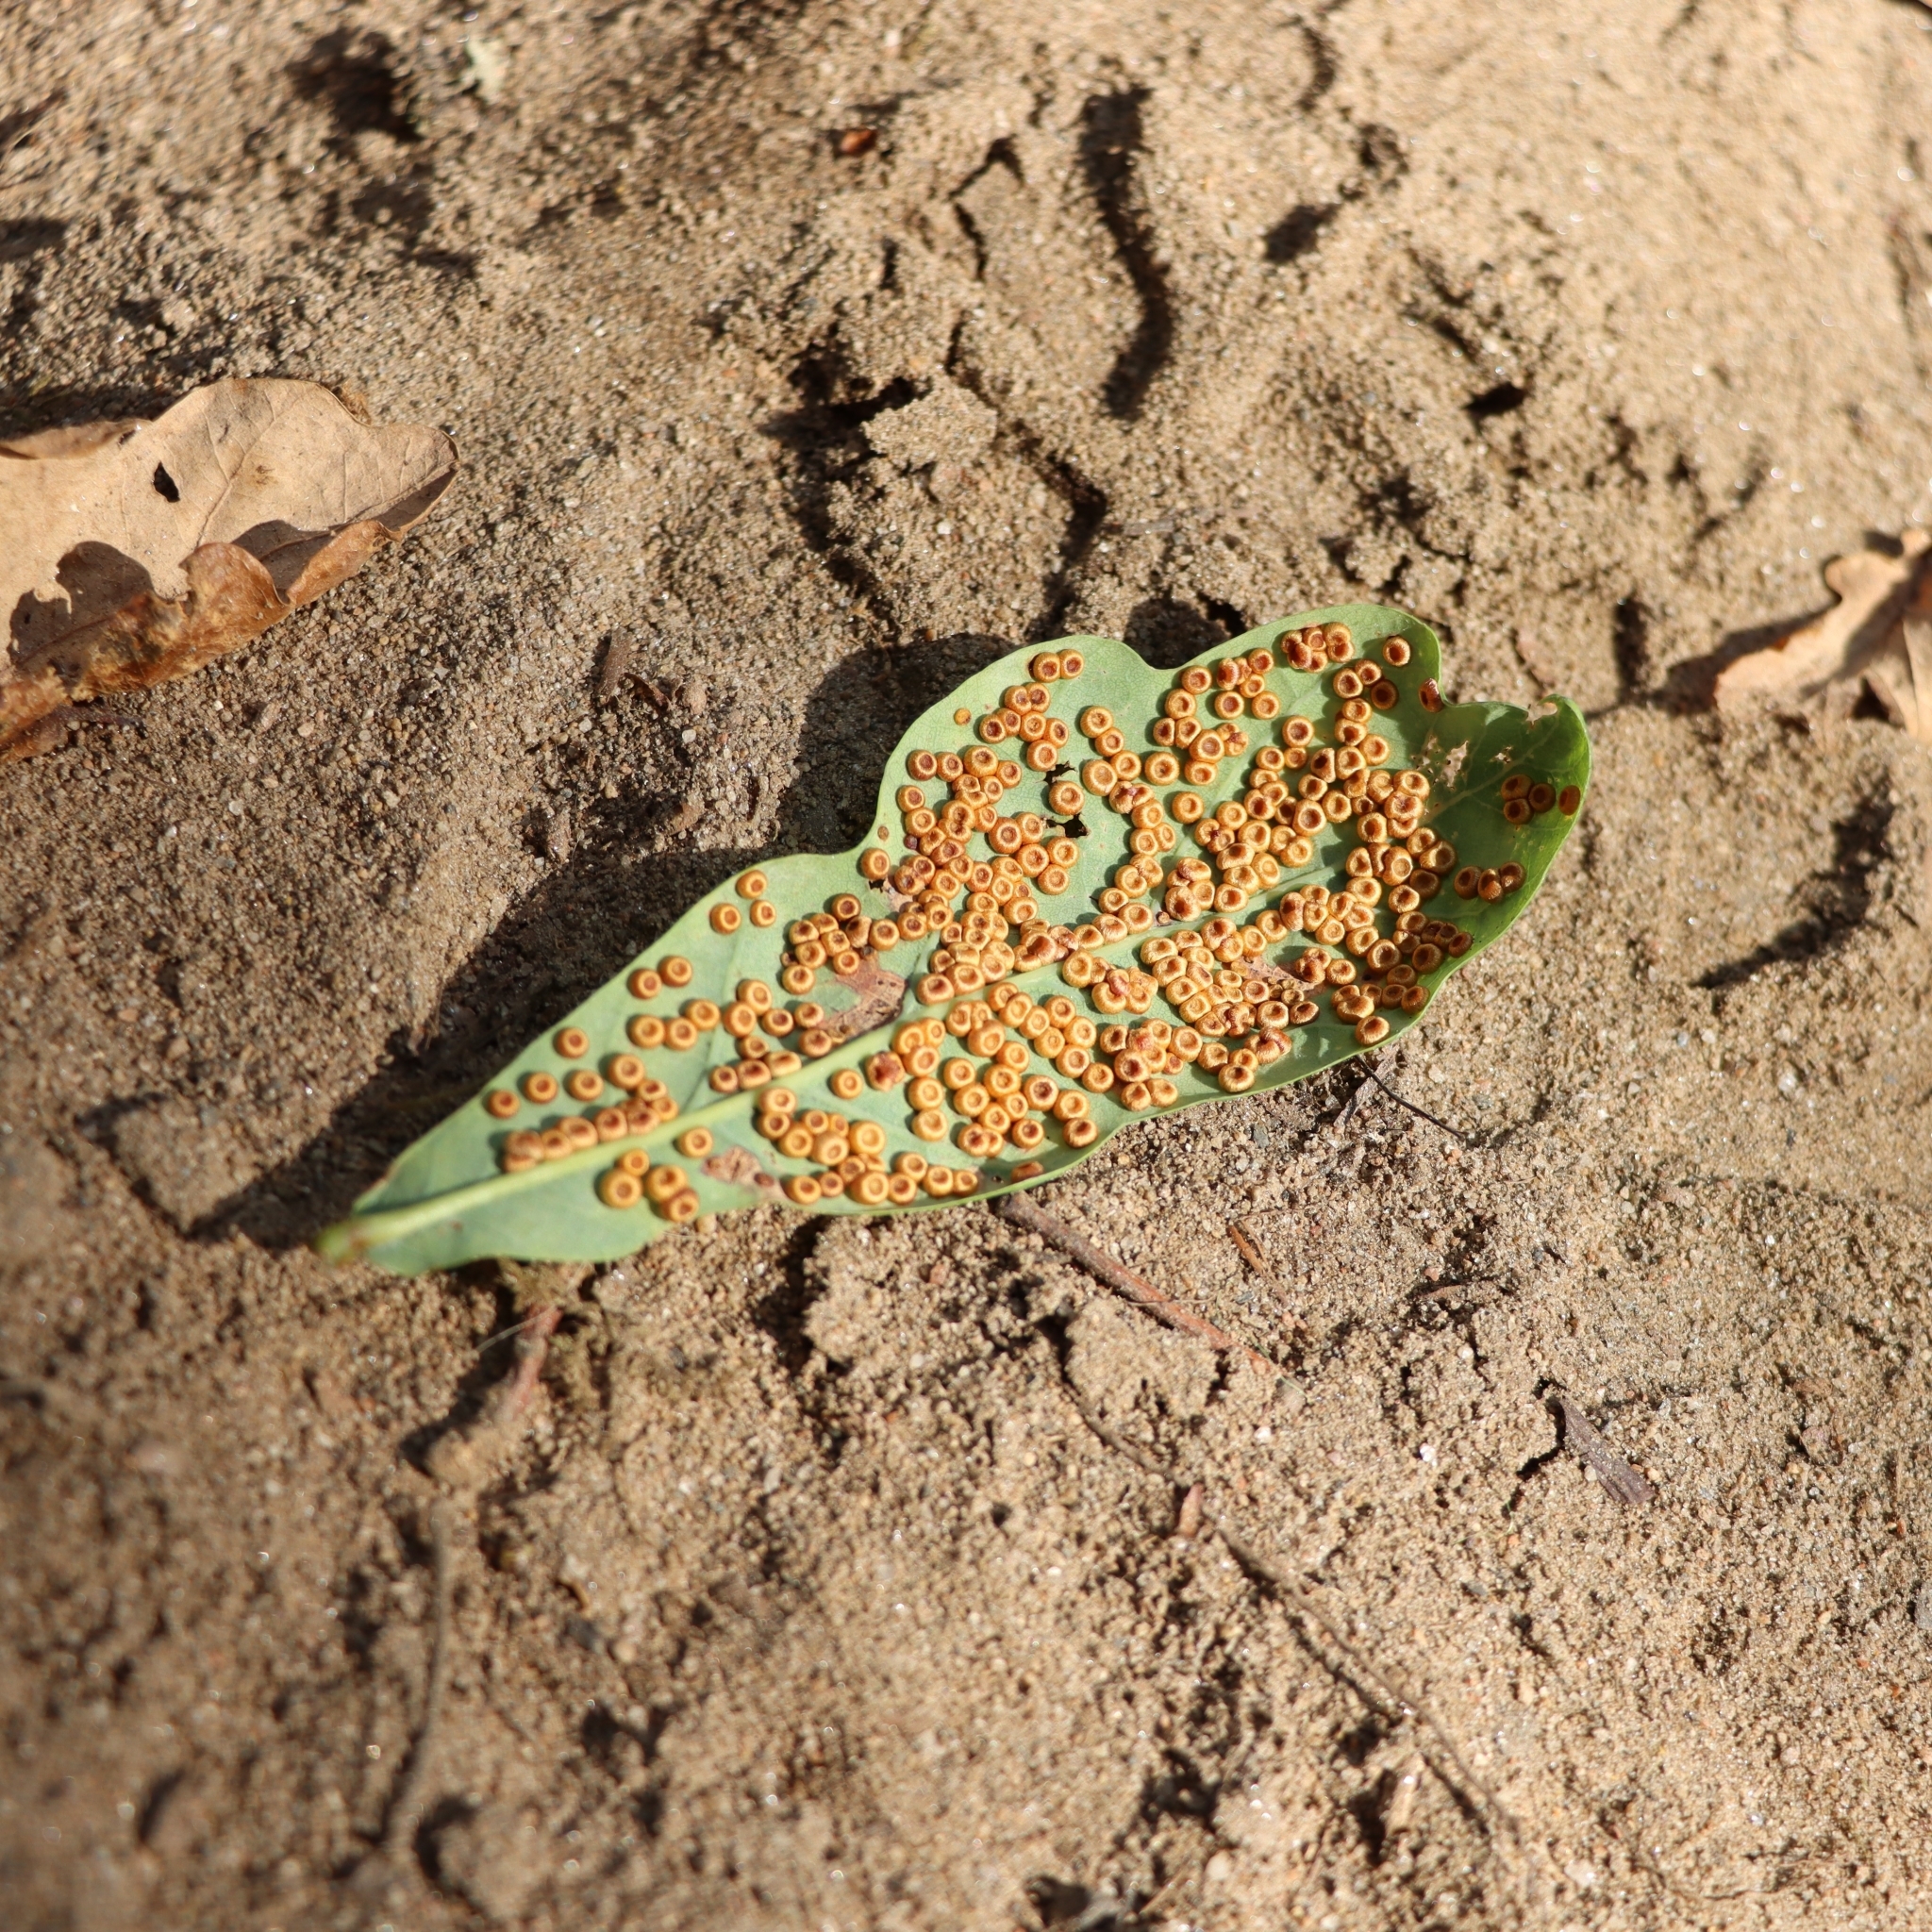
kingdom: Animalia
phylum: Arthropoda
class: Insecta
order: Hymenoptera
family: Cynipidae
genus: Neuroterus
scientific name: Neuroterus numismalis
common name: Silk-button spangle gall
